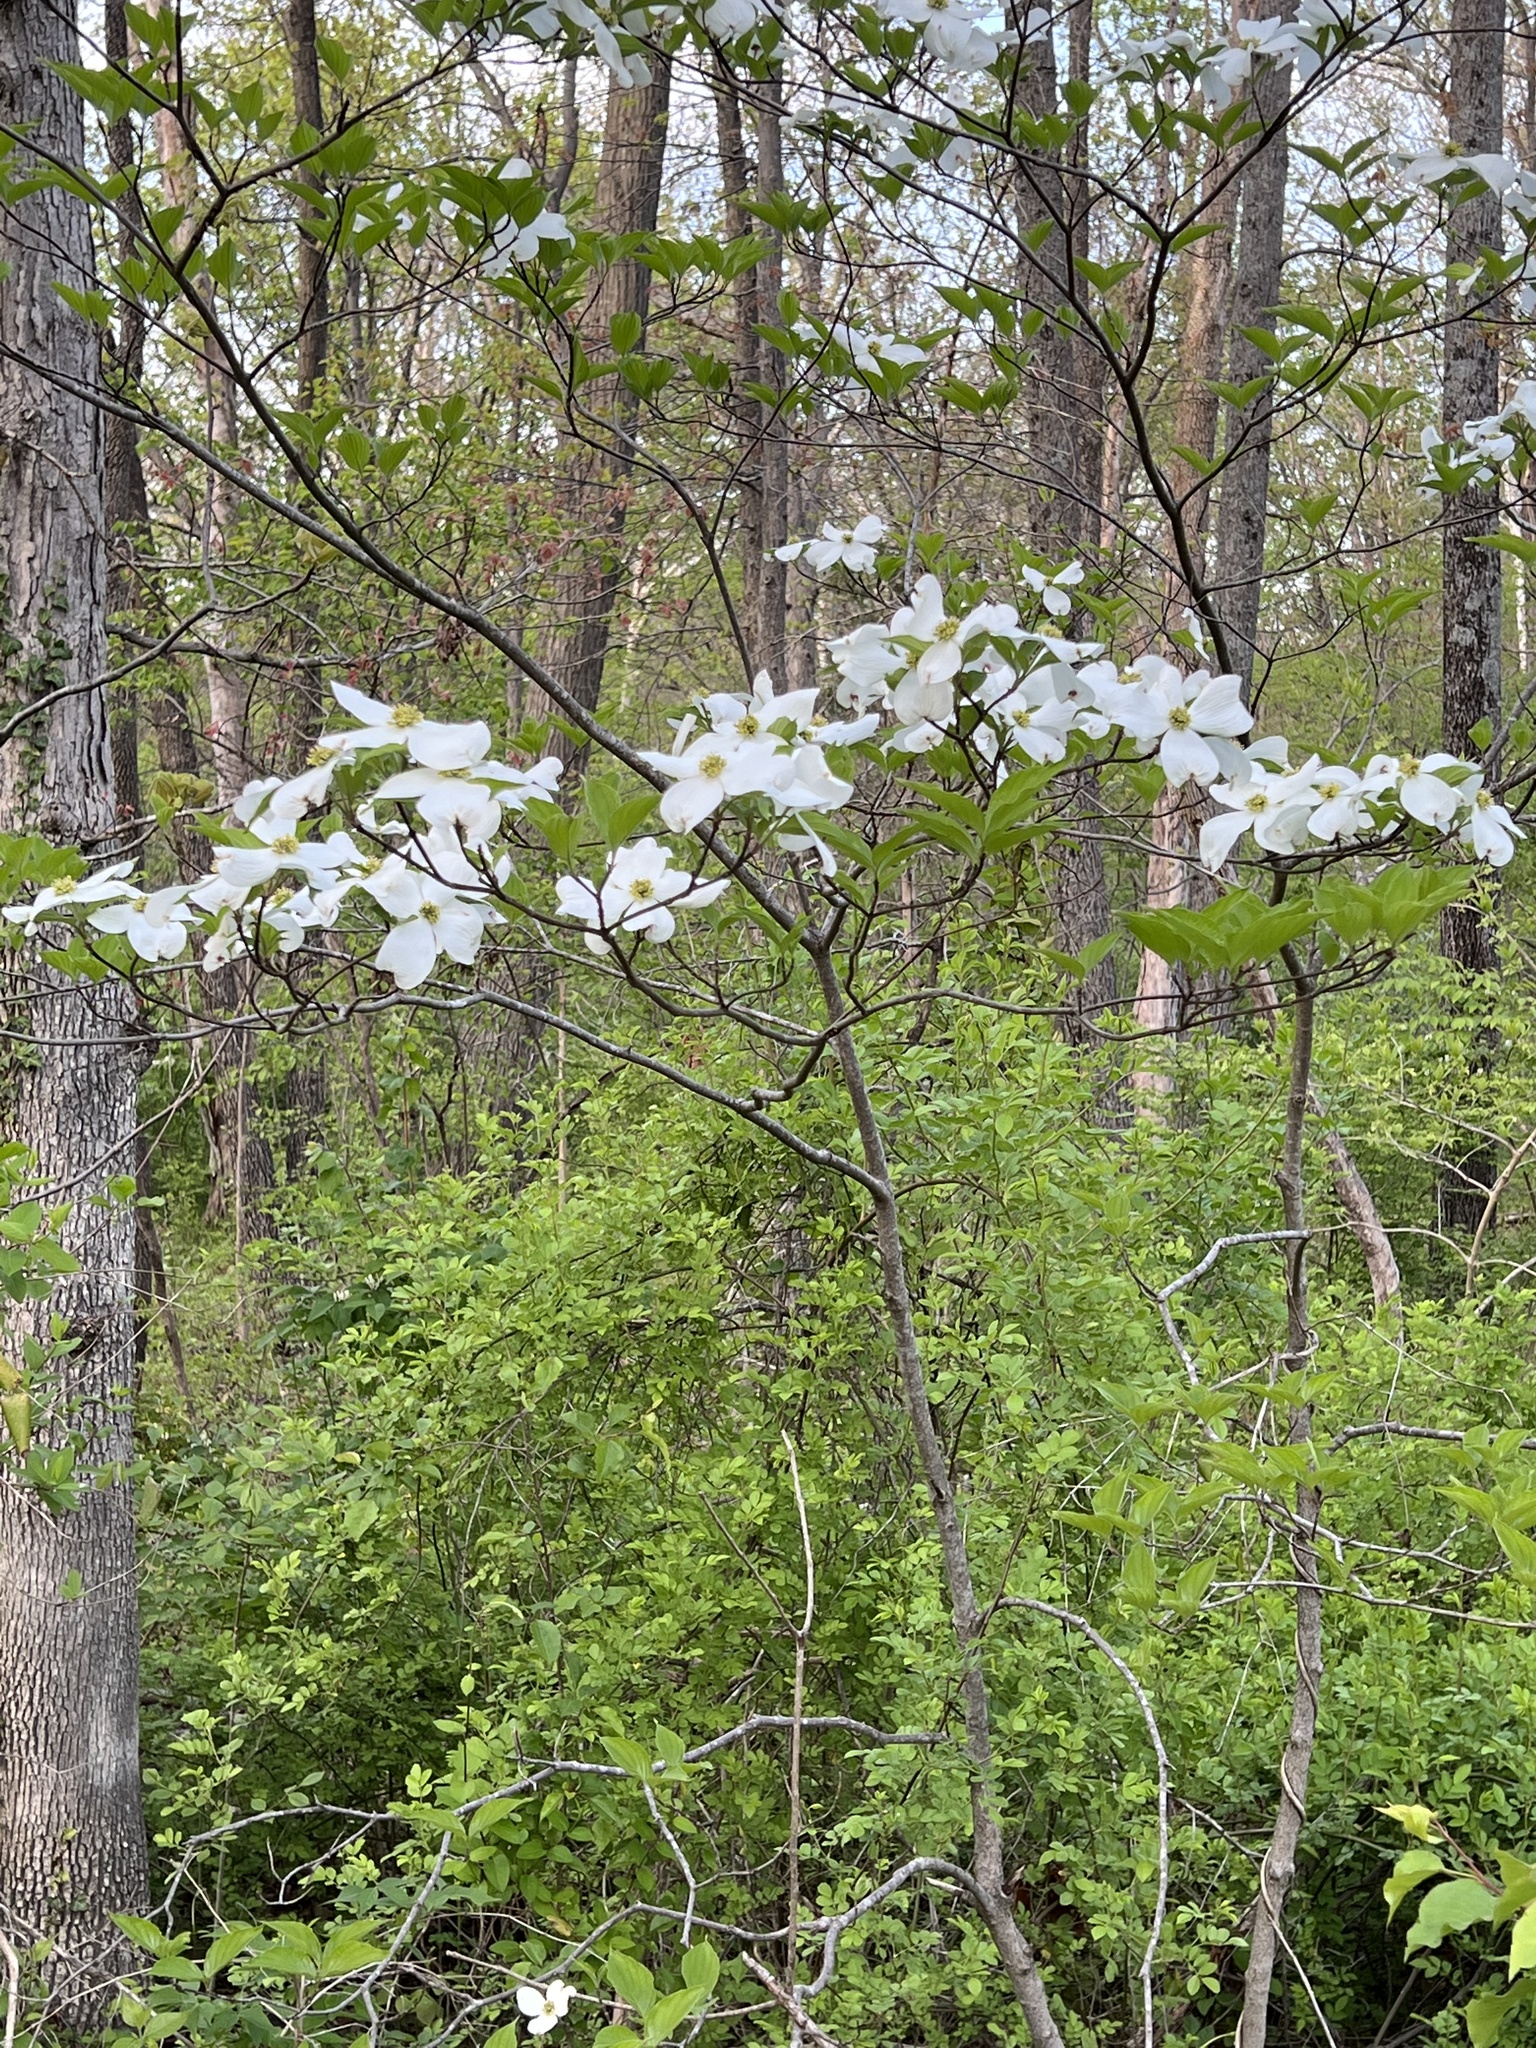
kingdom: Plantae
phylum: Tracheophyta
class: Magnoliopsida
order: Cornales
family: Cornaceae
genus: Cornus
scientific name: Cornus florida
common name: Flowering dogwood
